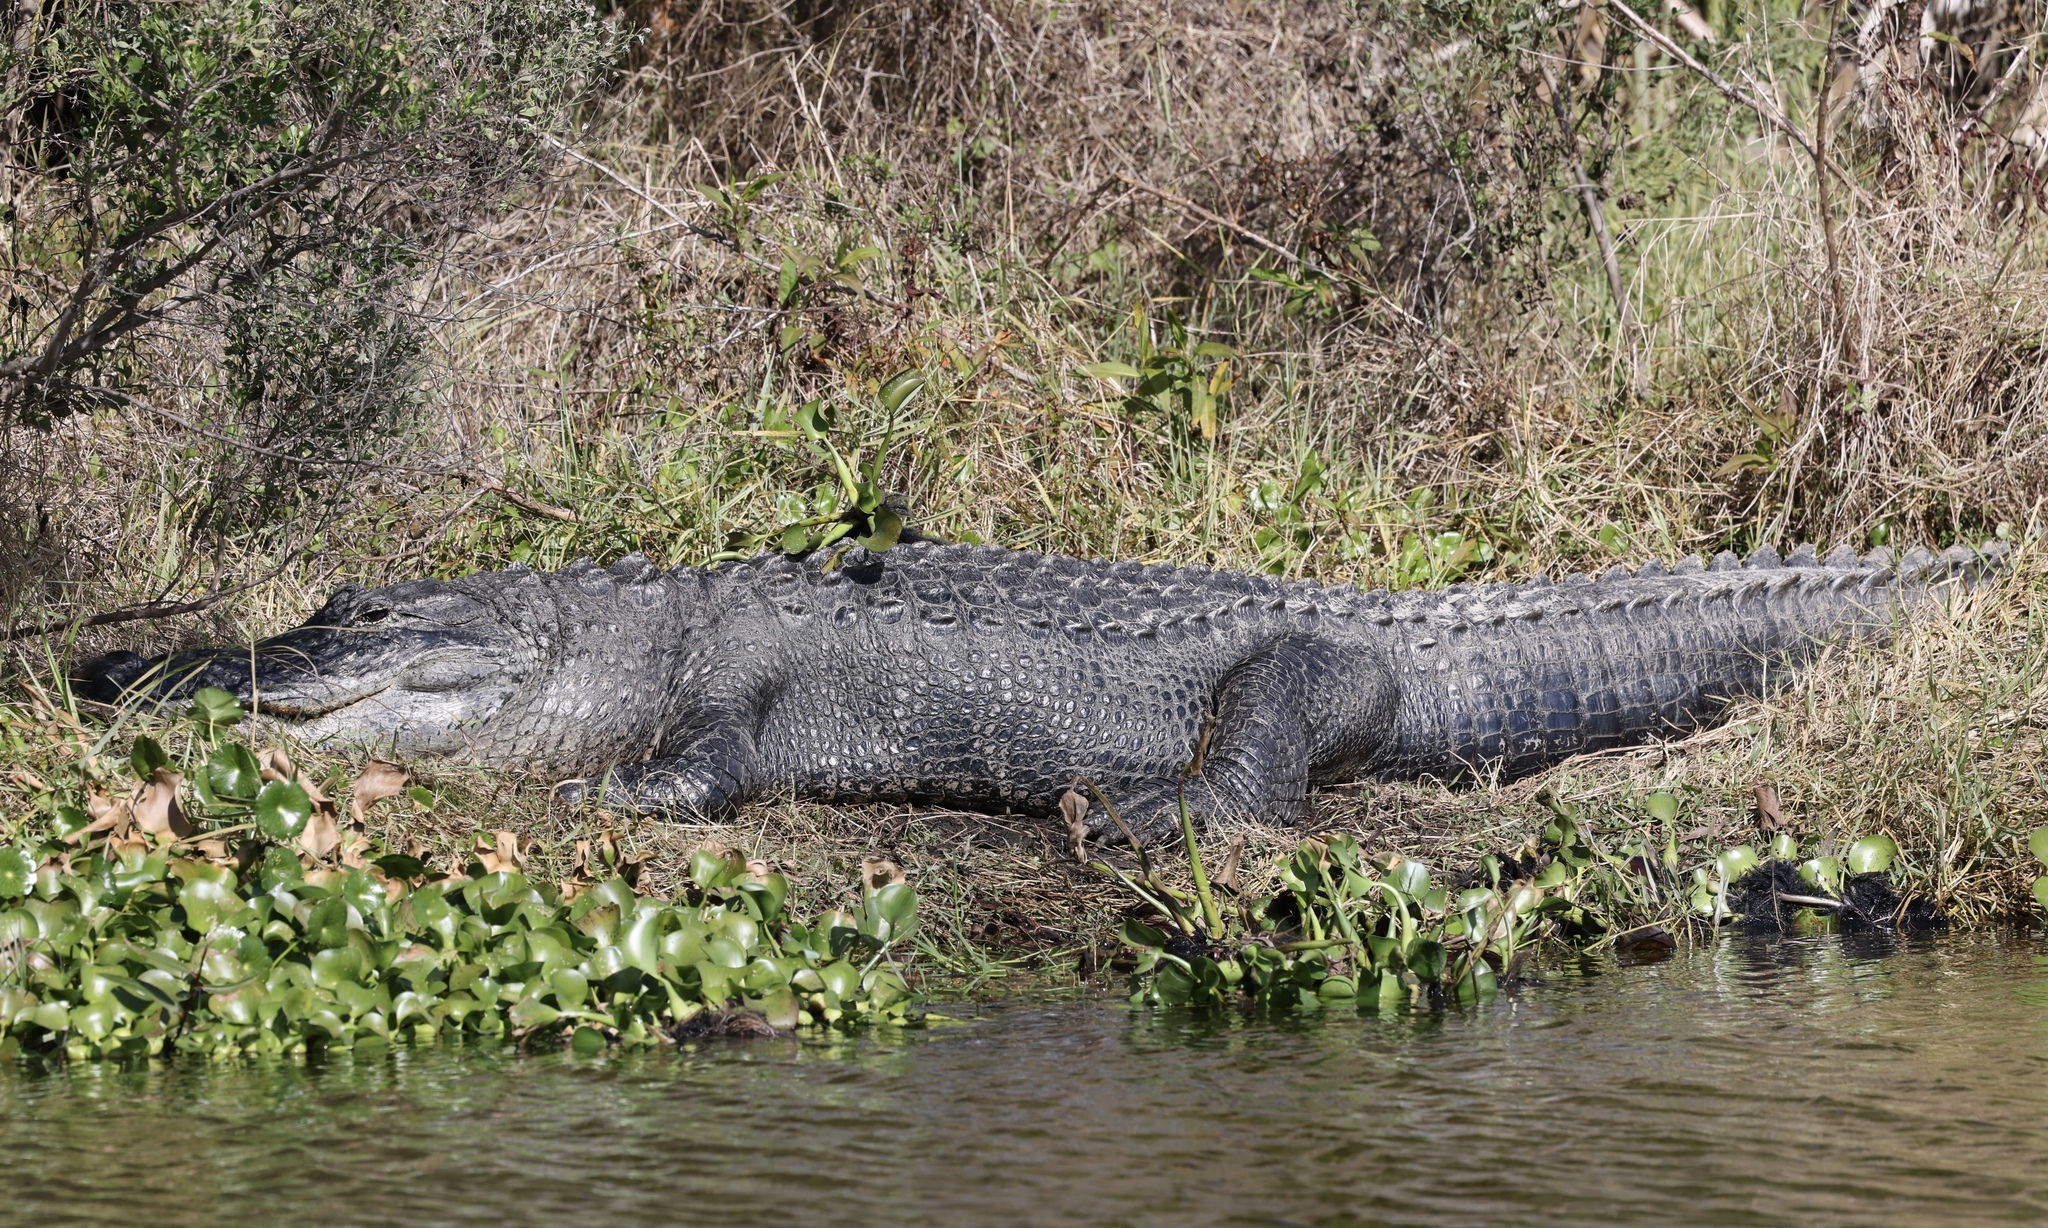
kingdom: Animalia
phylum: Chordata
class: Crocodylia
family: Alligatoridae
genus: Alligator
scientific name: Alligator mississippiensis
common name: American alligator
